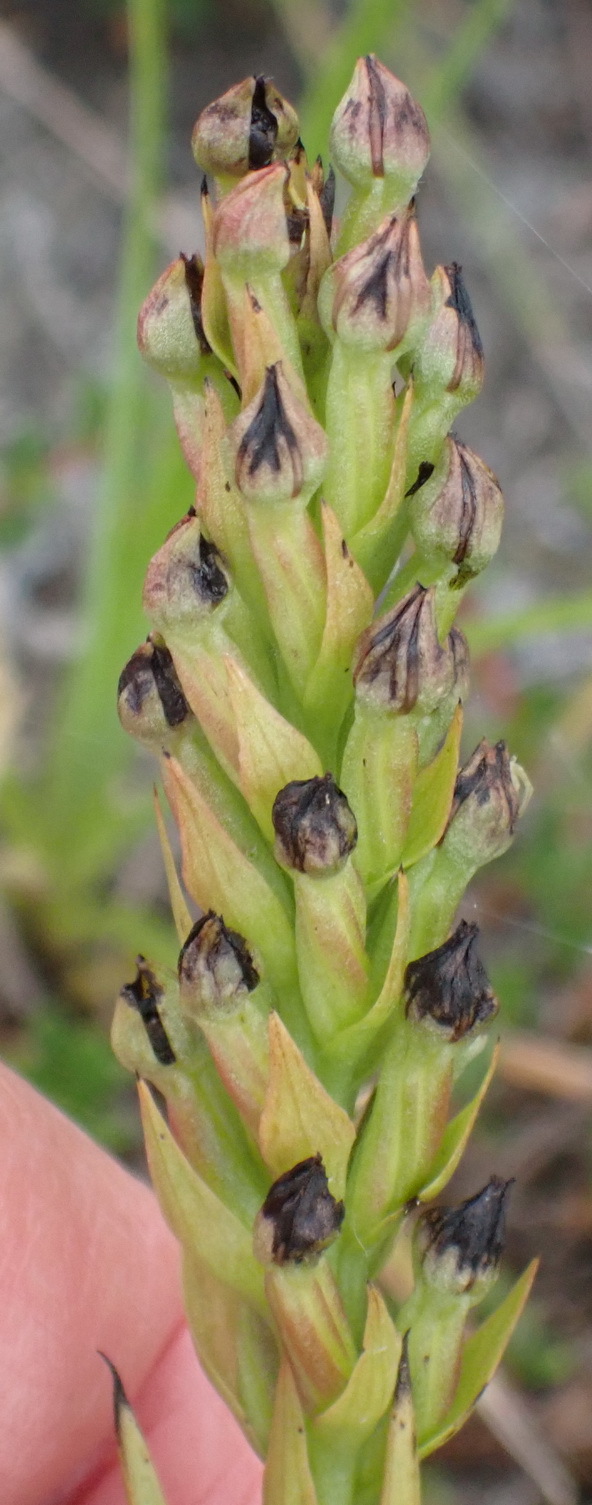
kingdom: Plantae
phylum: Tracheophyta
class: Liliopsida
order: Asparagales
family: Orchidaceae
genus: Evotella
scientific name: Evotella carnosa
